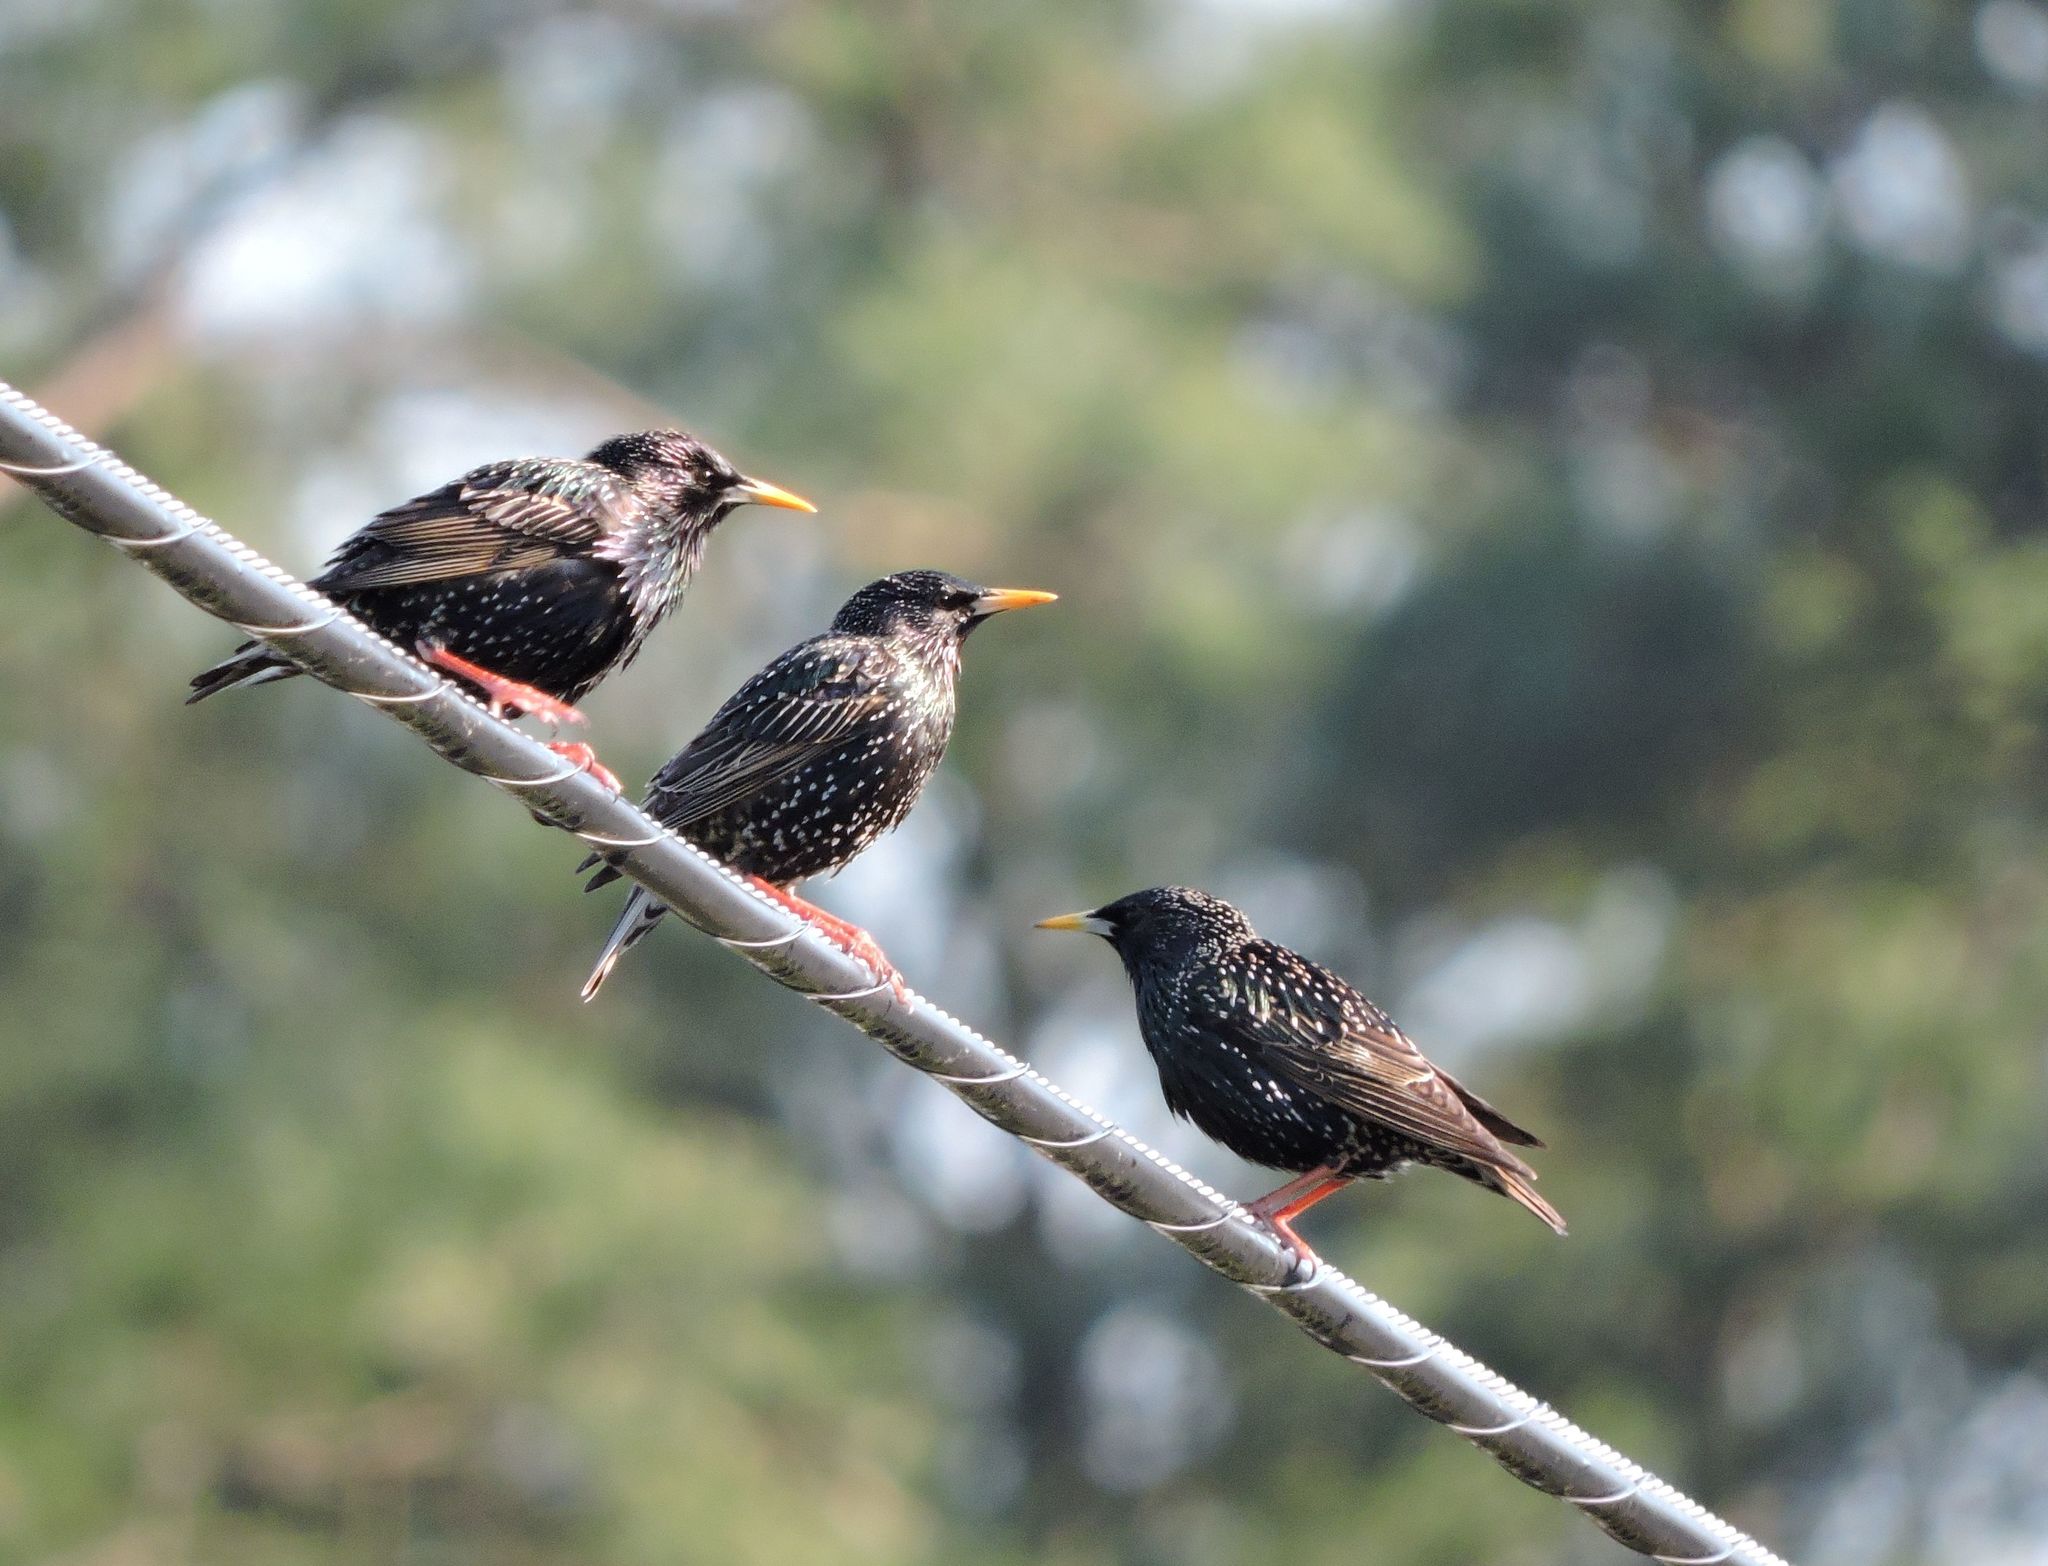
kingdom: Animalia
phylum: Chordata
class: Aves
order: Passeriformes
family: Sturnidae
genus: Sturnus
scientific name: Sturnus vulgaris
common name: Common starling
